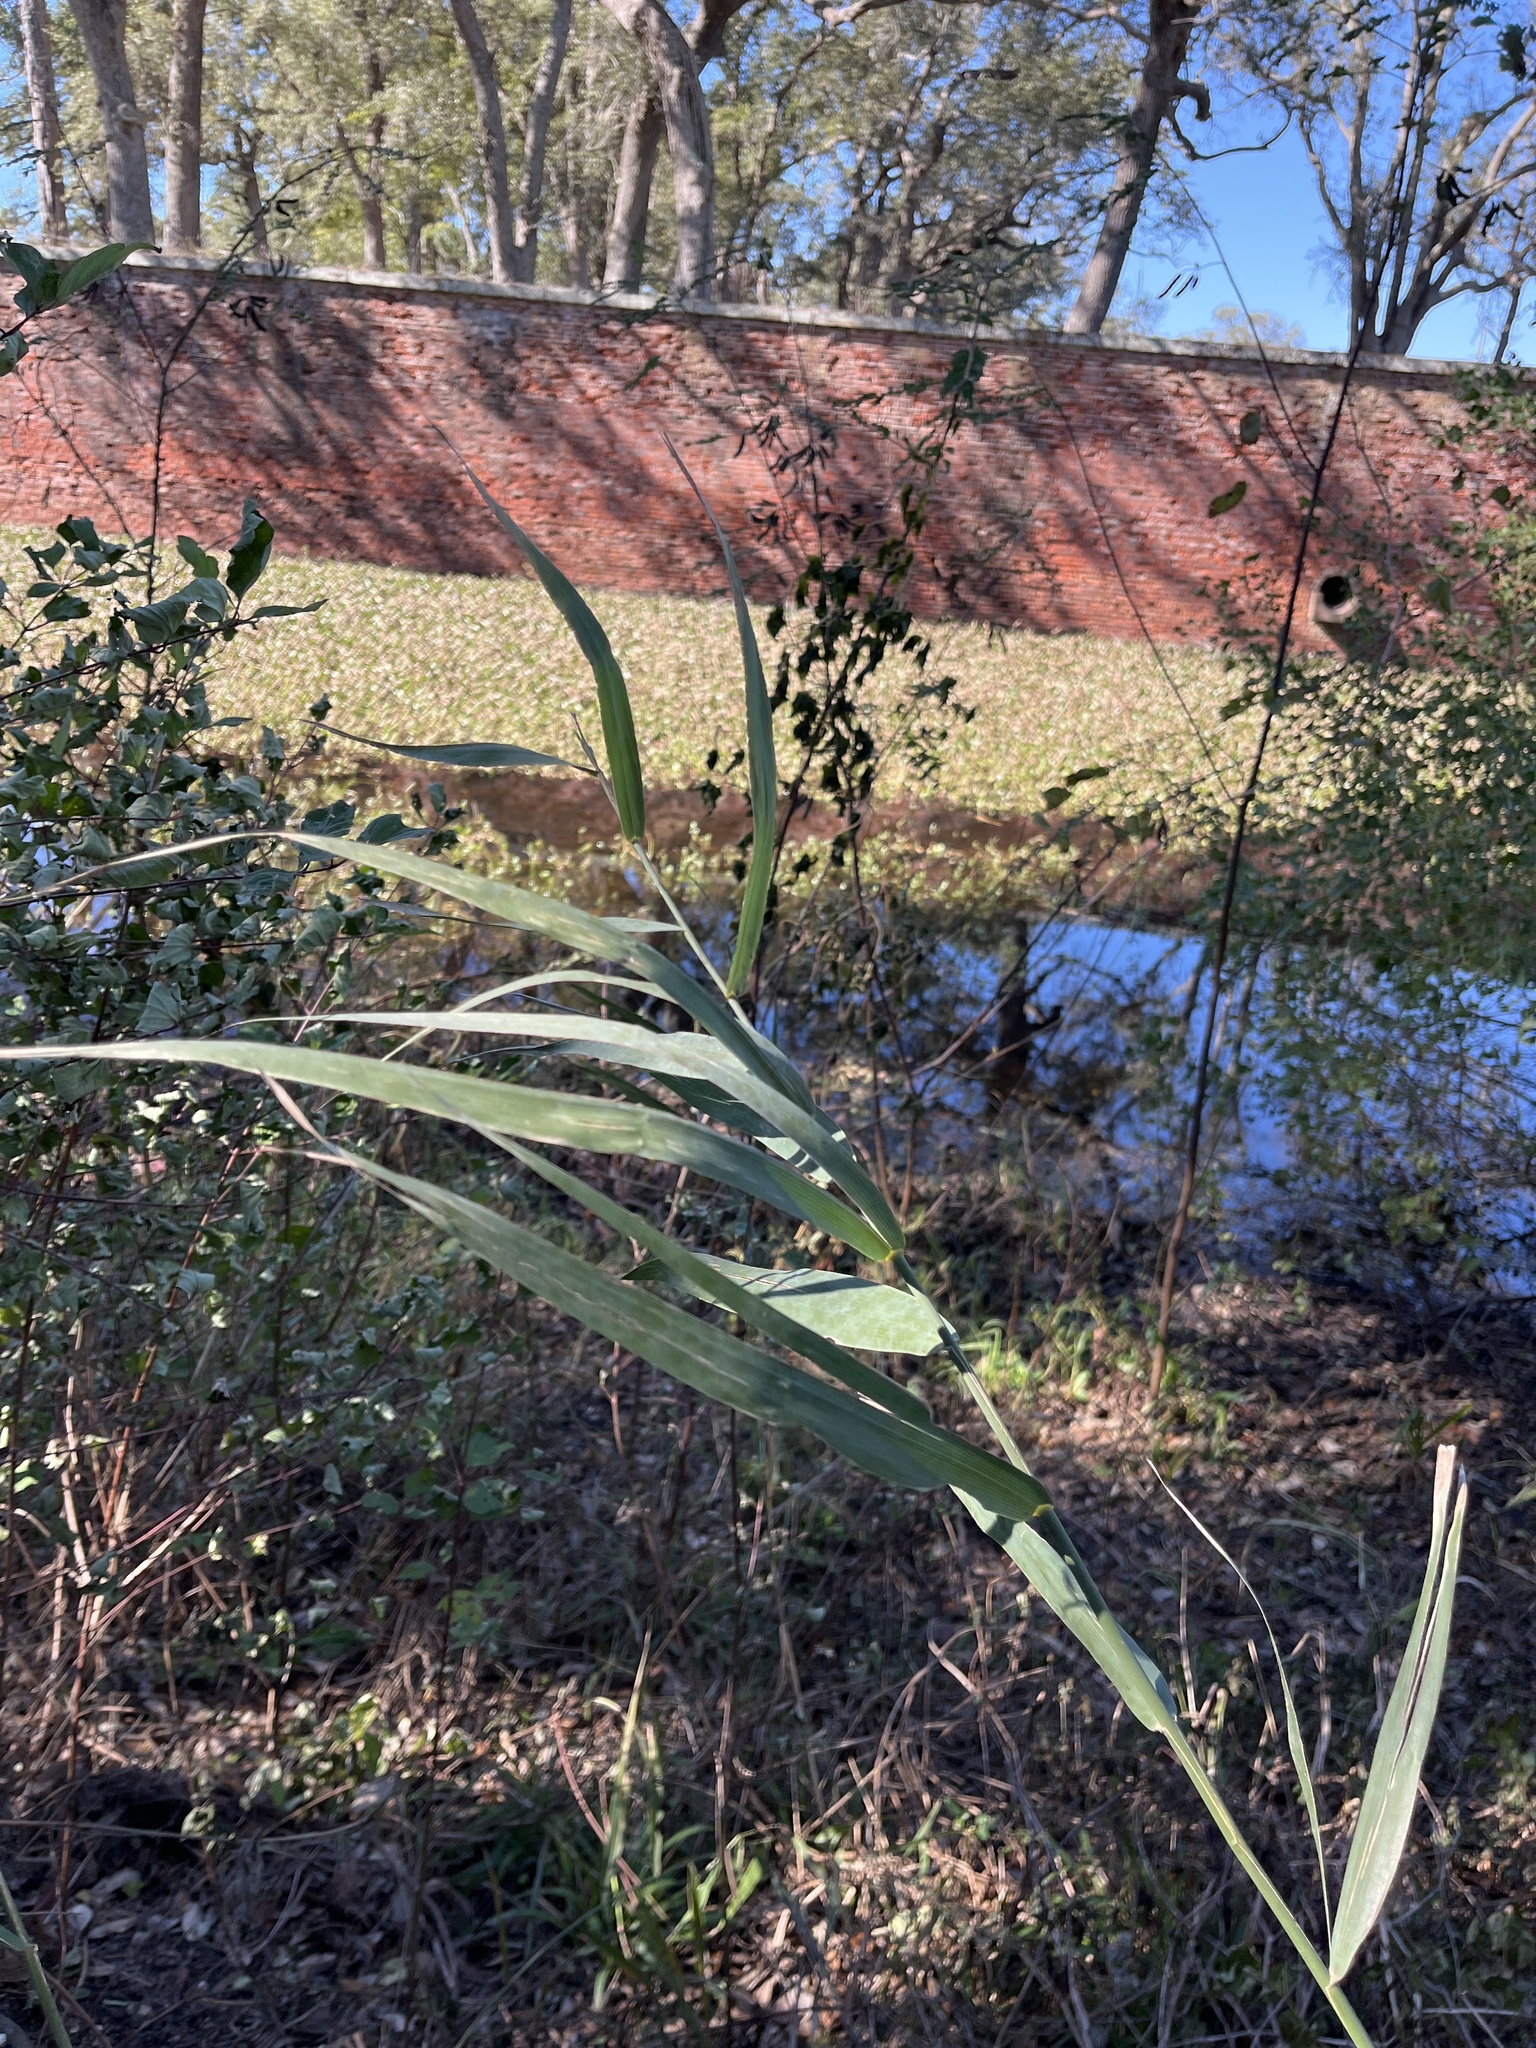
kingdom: Plantae
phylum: Tracheophyta
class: Liliopsida
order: Poales
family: Poaceae
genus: Phragmites
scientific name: Phragmites australis
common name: Common reed
